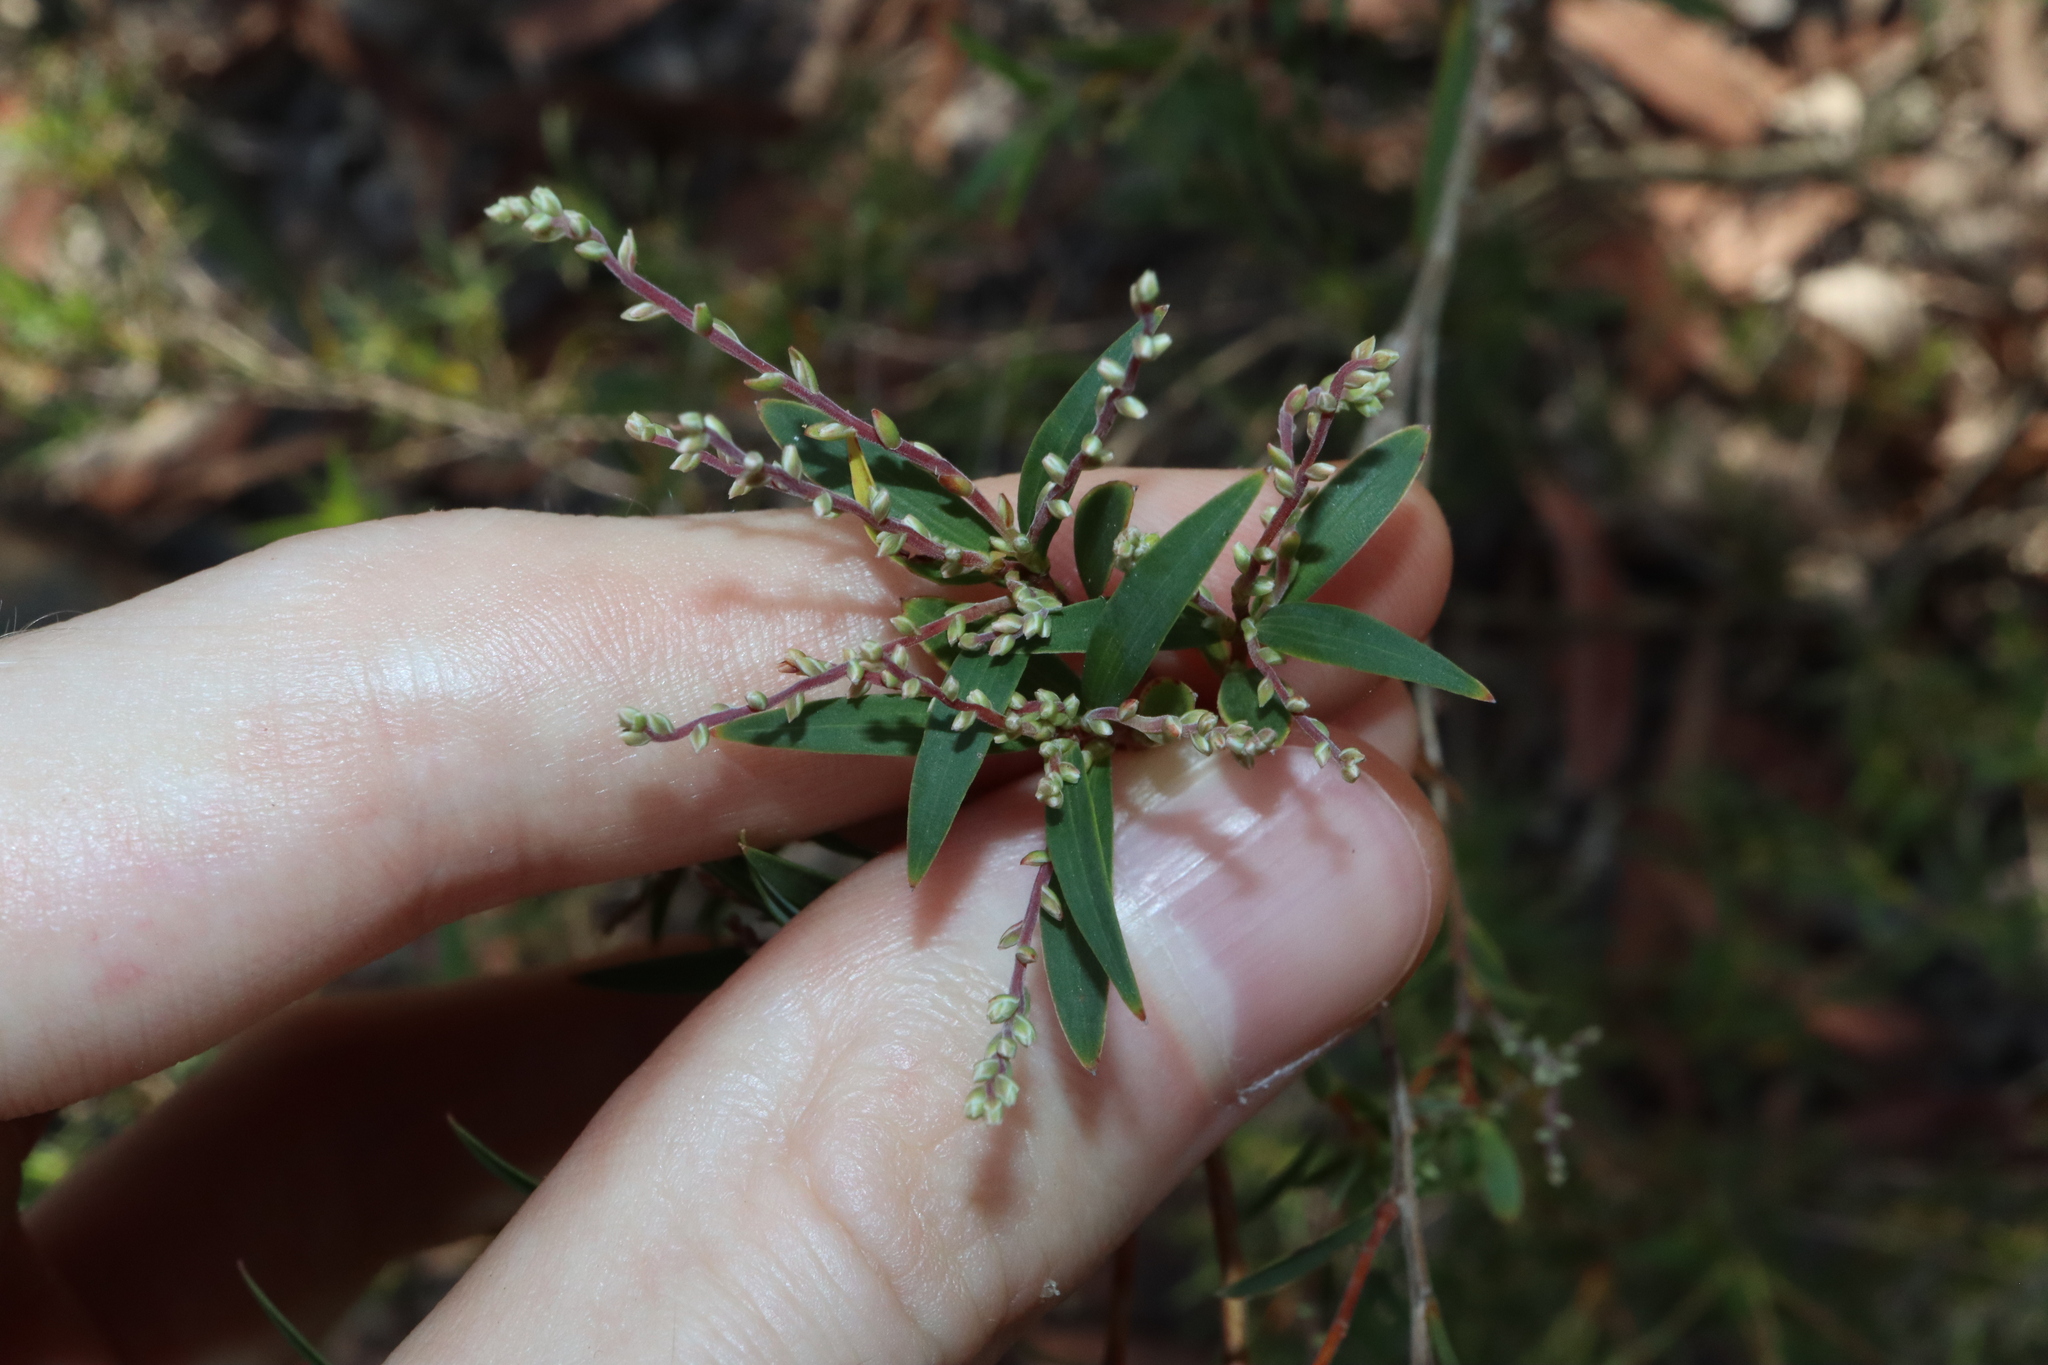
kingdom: Plantae
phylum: Tracheophyta
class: Magnoliopsida
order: Ericales
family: Ericaceae
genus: Leucopogon
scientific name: Leucopogon lanceolatus
